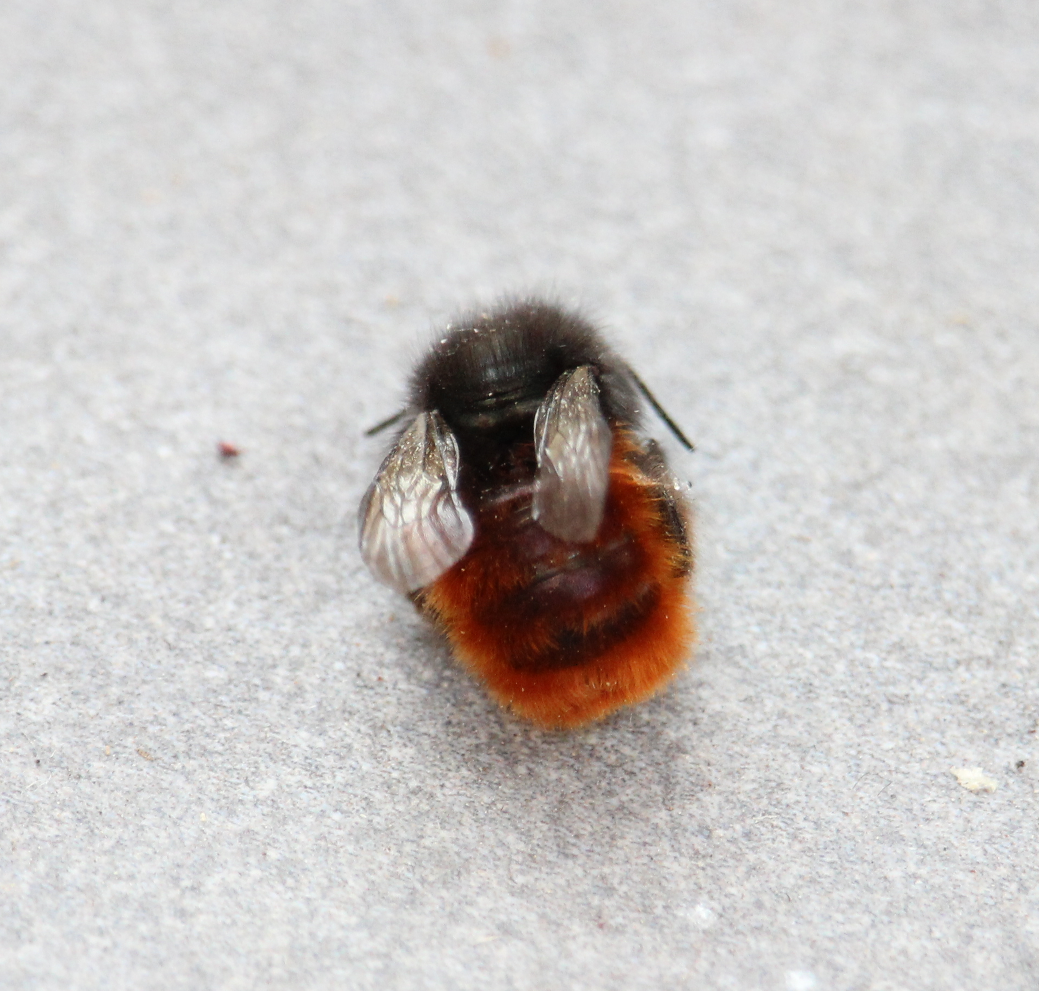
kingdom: Animalia
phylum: Arthropoda
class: Insecta
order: Hymenoptera
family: Megachilidae
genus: Osmia
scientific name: Osmia cornuta
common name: Mason bee
